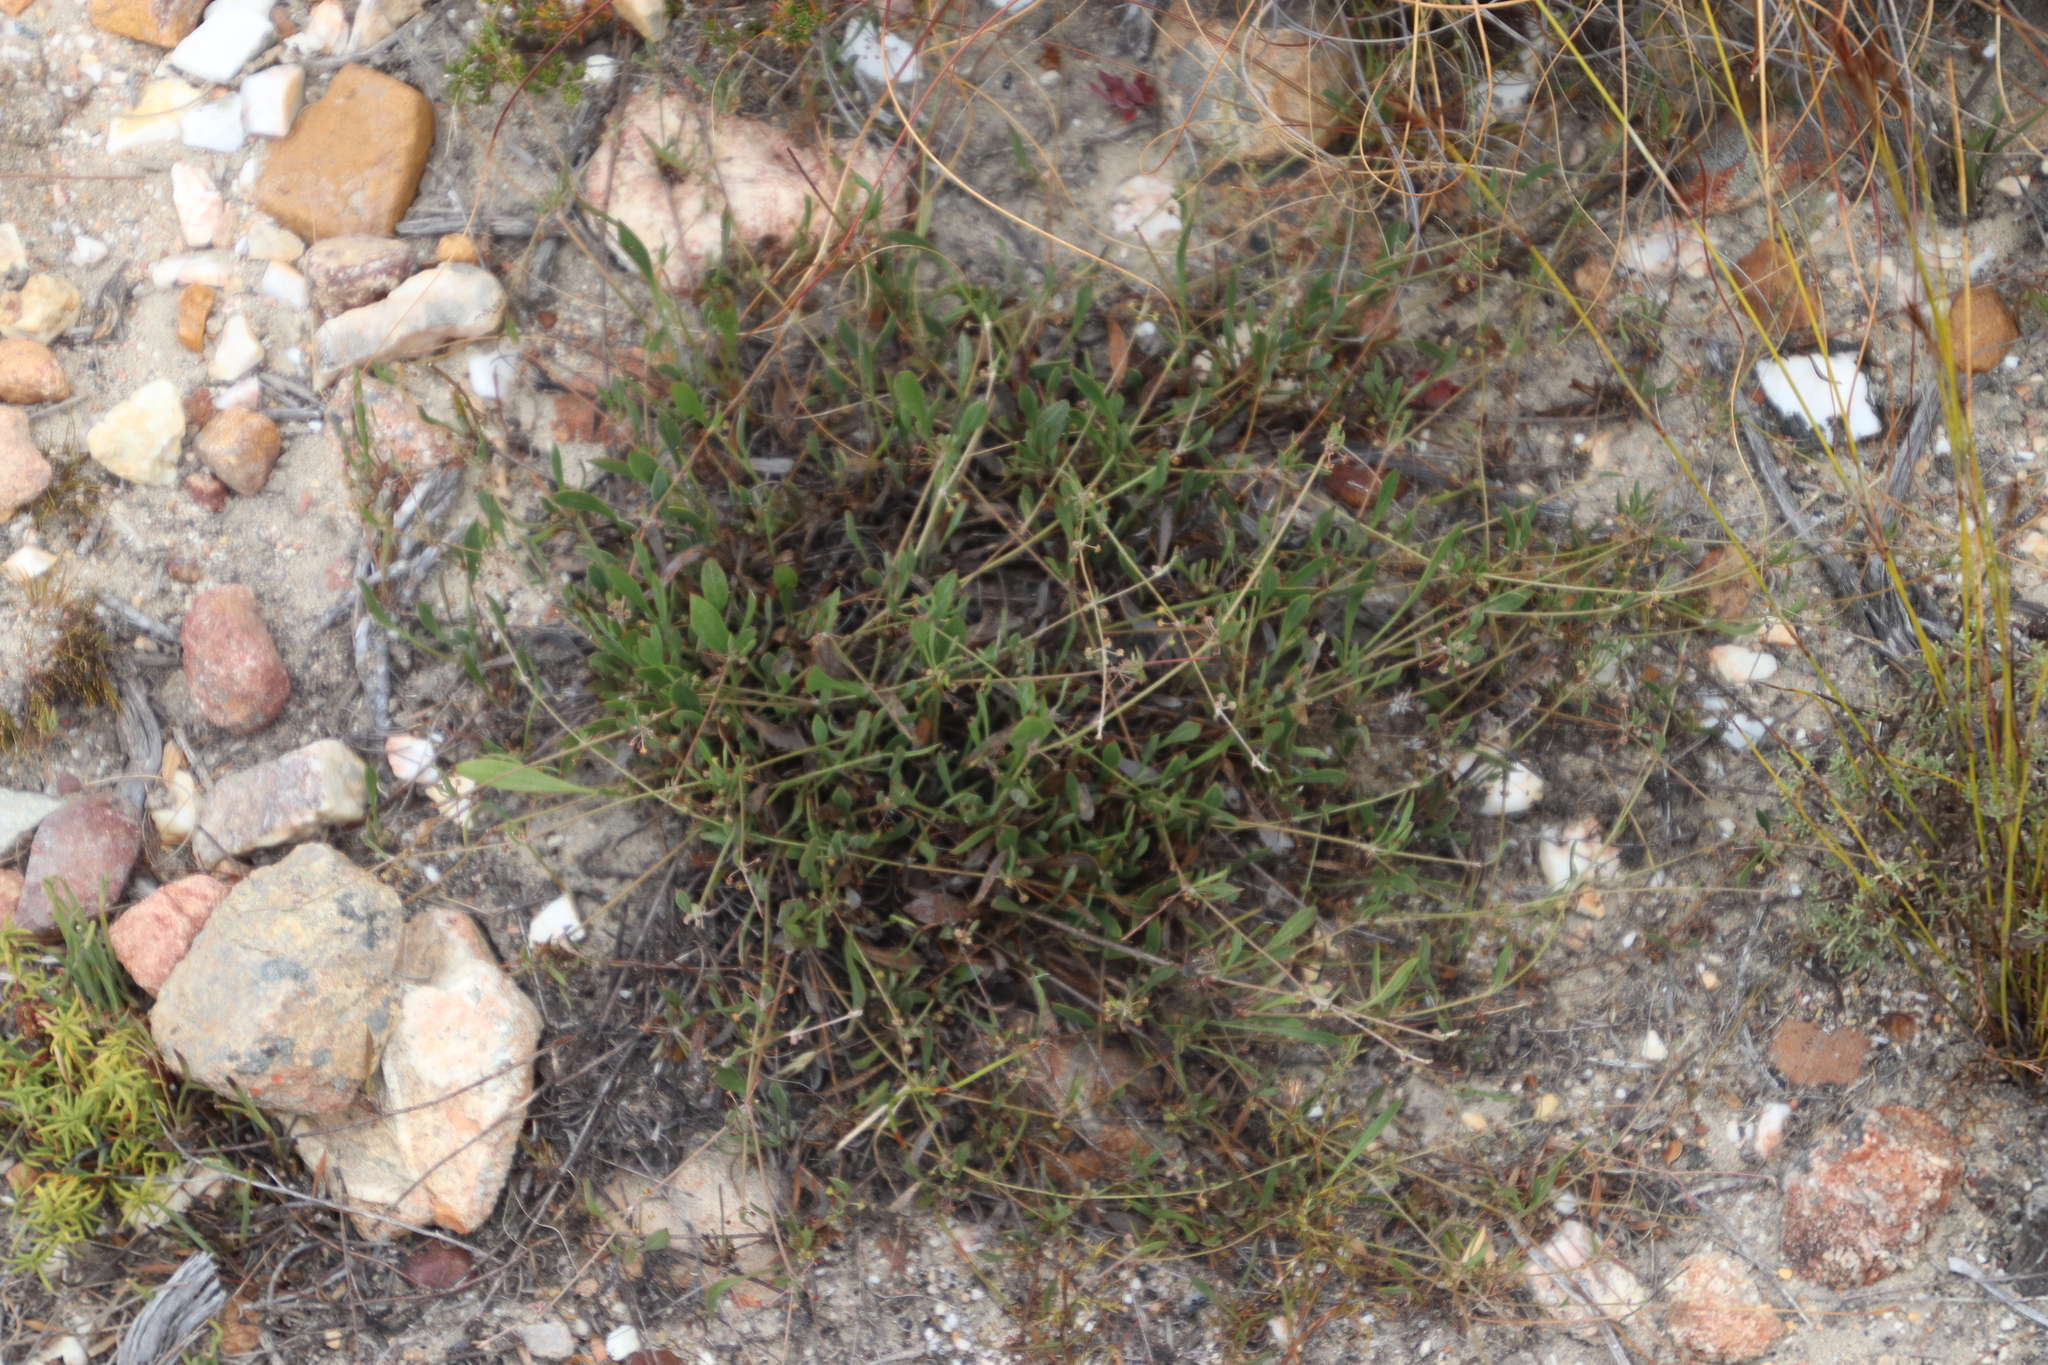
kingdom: Plantae
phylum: Tracheophyta
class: Magnoliopsida
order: Apiales
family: Apiaceae
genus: Centella
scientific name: Centella glabrata
